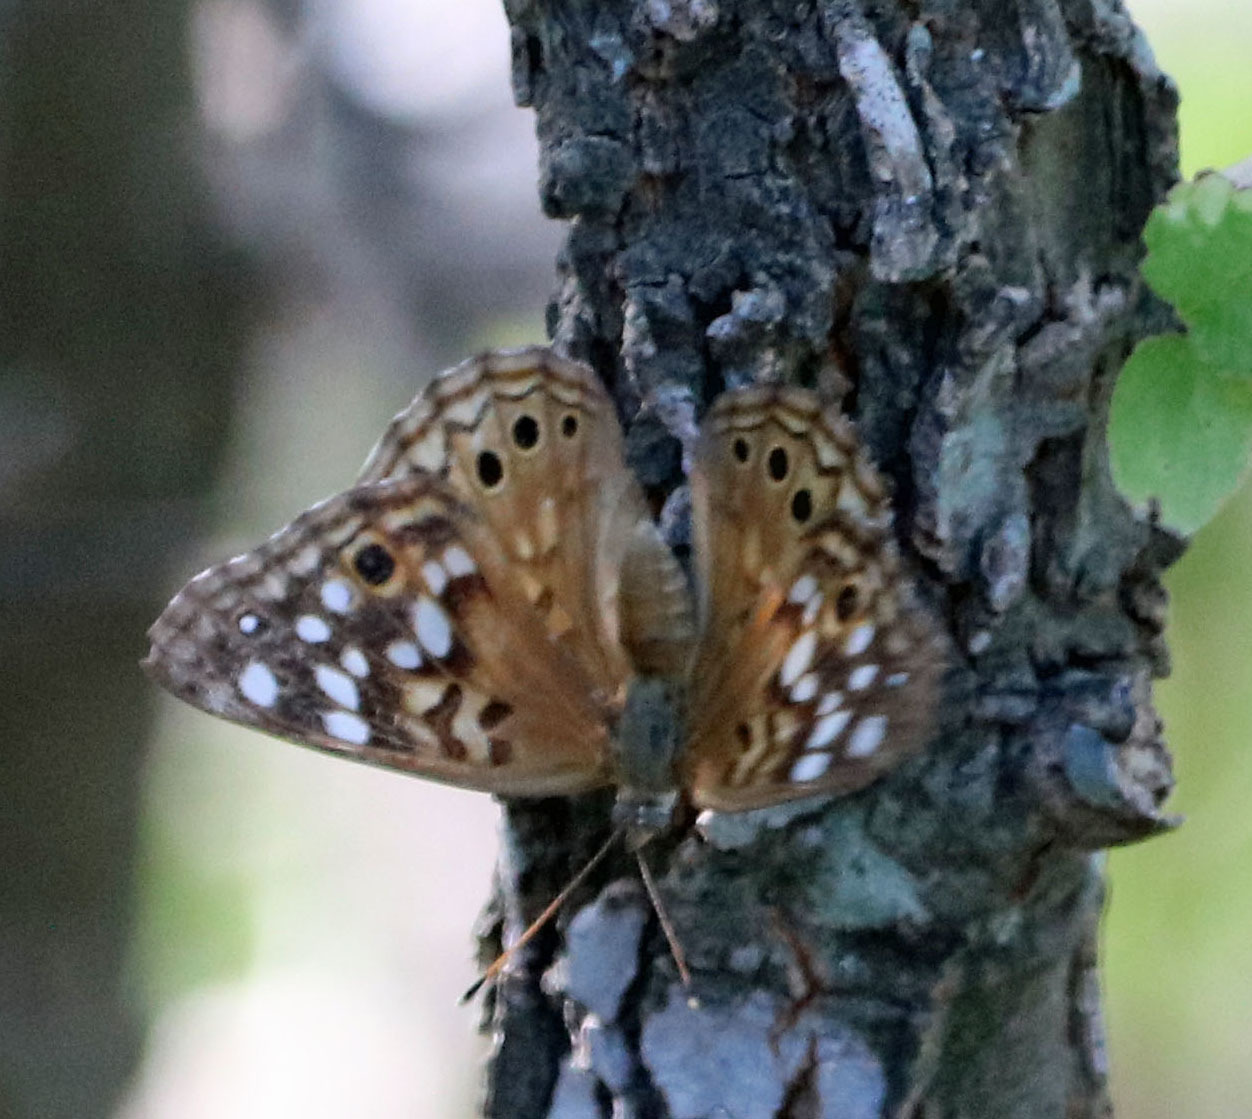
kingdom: Animalia
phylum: Arthropoda
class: Insecta
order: Lepidoptera
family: Nymphalidae
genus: Asterocampa
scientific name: Asterocampa celtis
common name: Hackberry emperor
